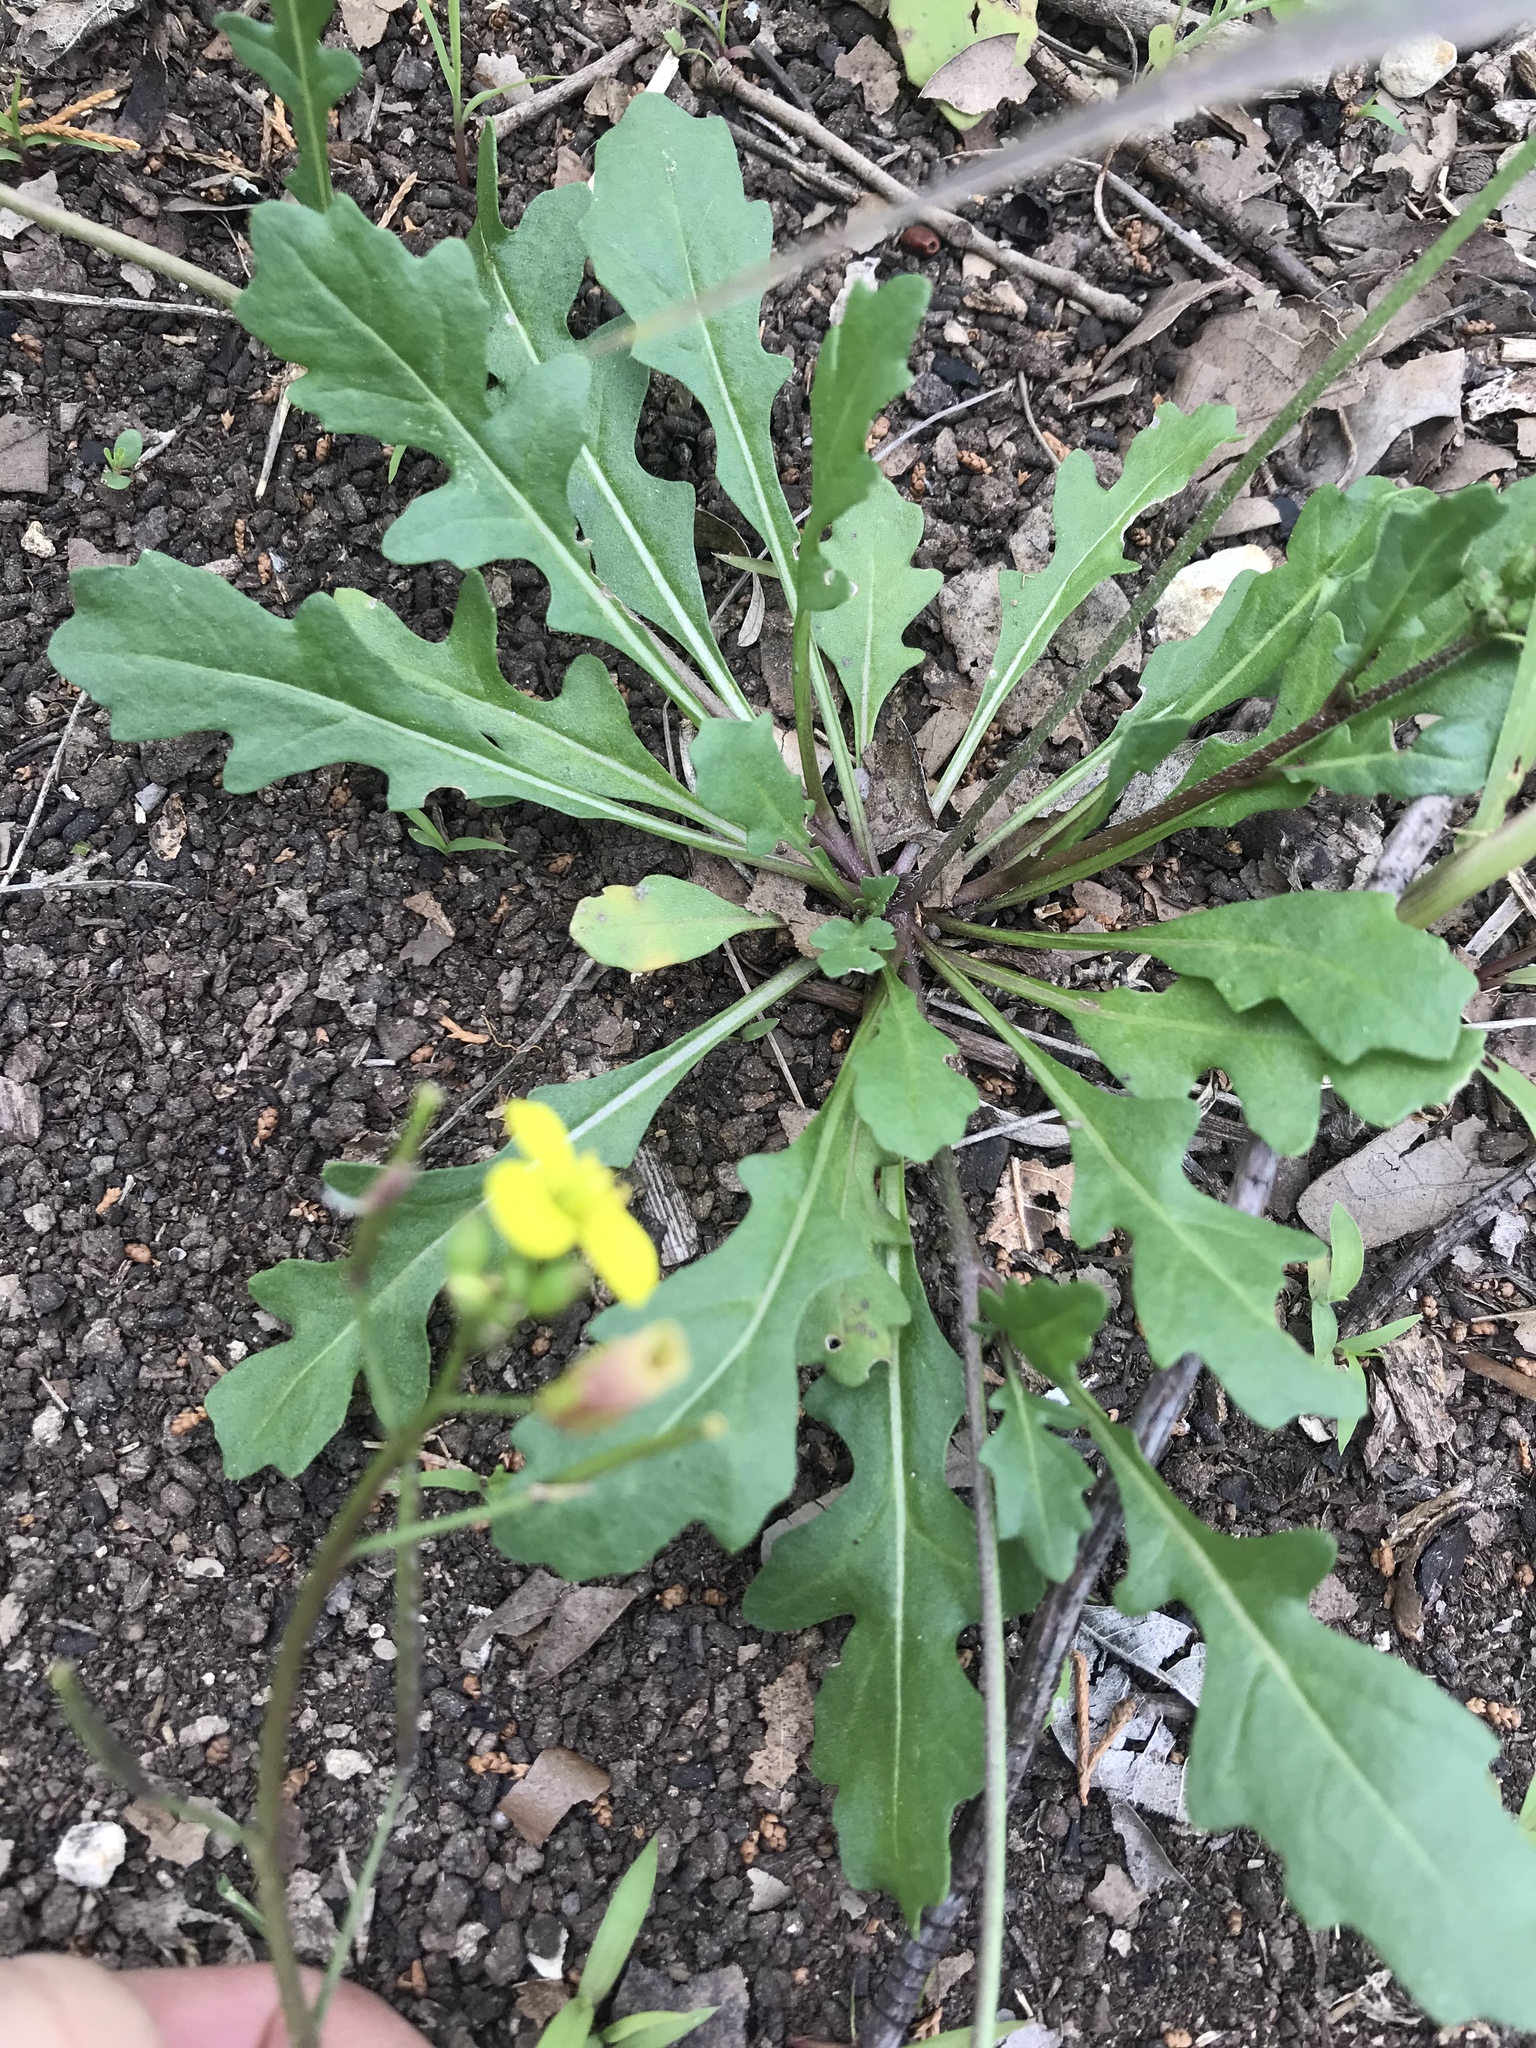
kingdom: Plantae
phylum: Tracheophyta
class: Magnoliopsida
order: Brassicales
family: Brassicaceae
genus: Diplotaxis
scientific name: Diplotaxis muralis
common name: Annual wall-rocket
